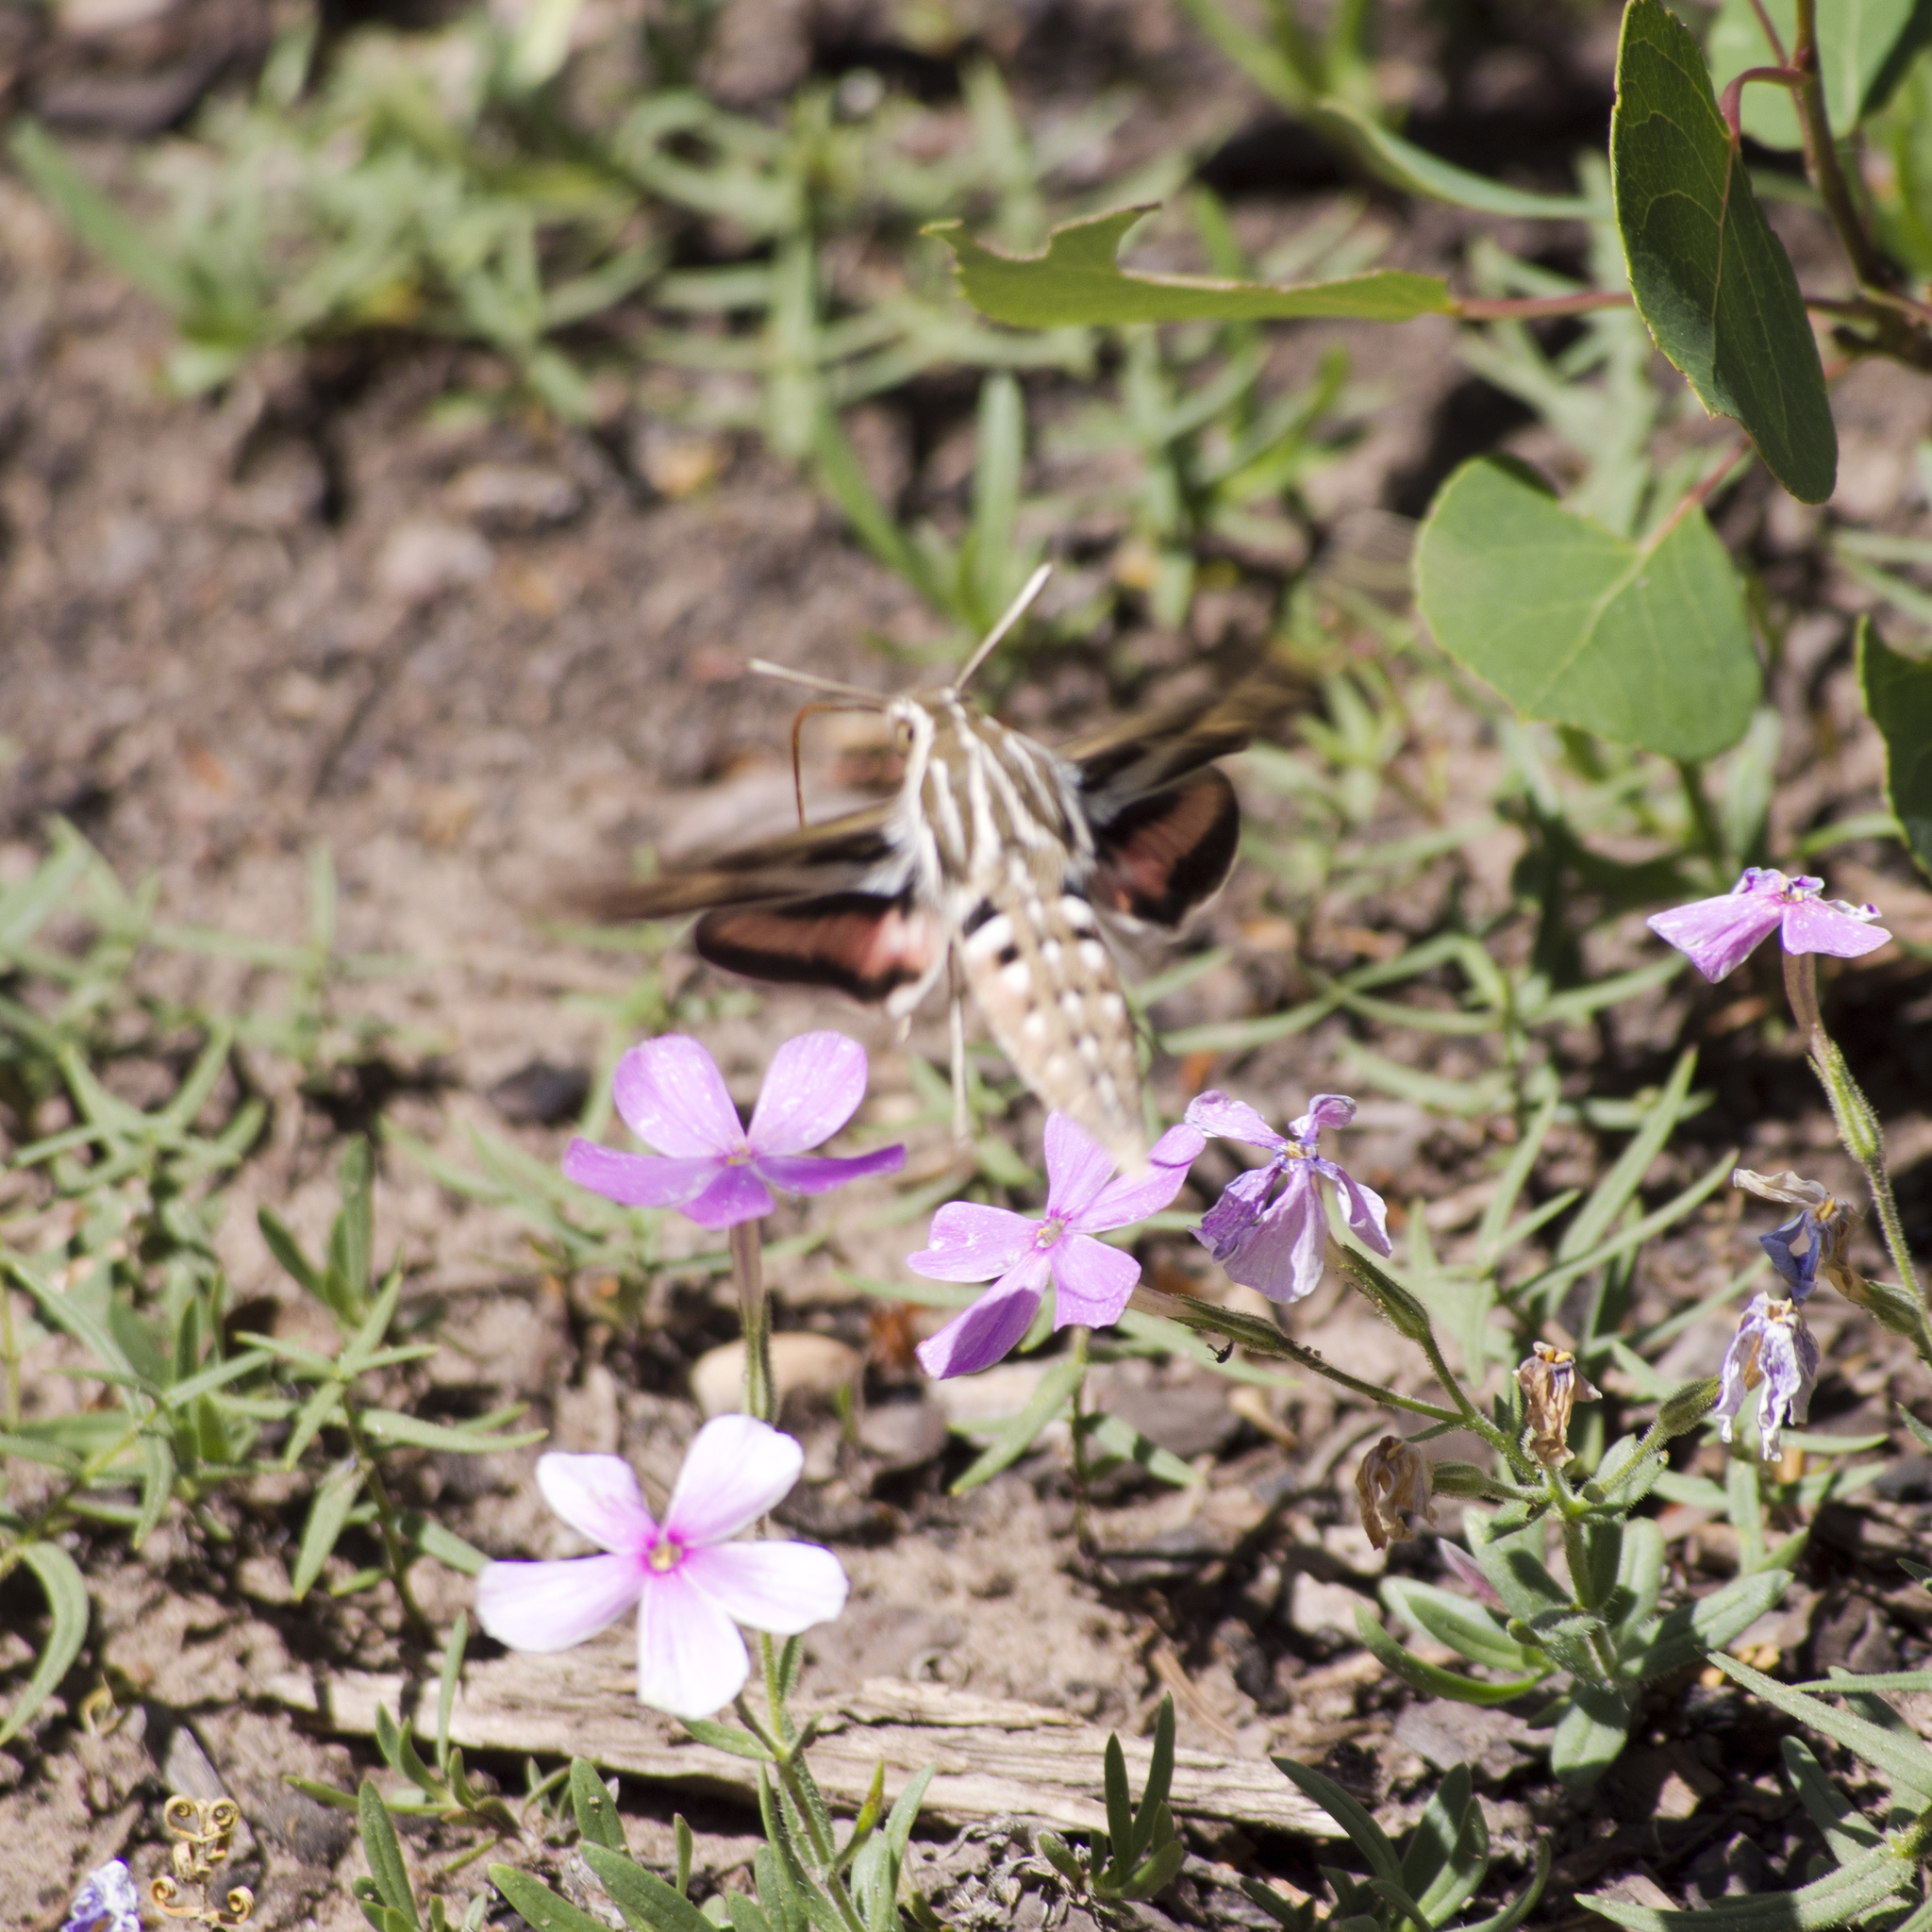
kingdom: Animalia
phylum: Arthropoda
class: Insecta
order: Lepidoptera
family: Sphingidae
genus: Hyles
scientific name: Hyles lineata
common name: White-lined sphinx
